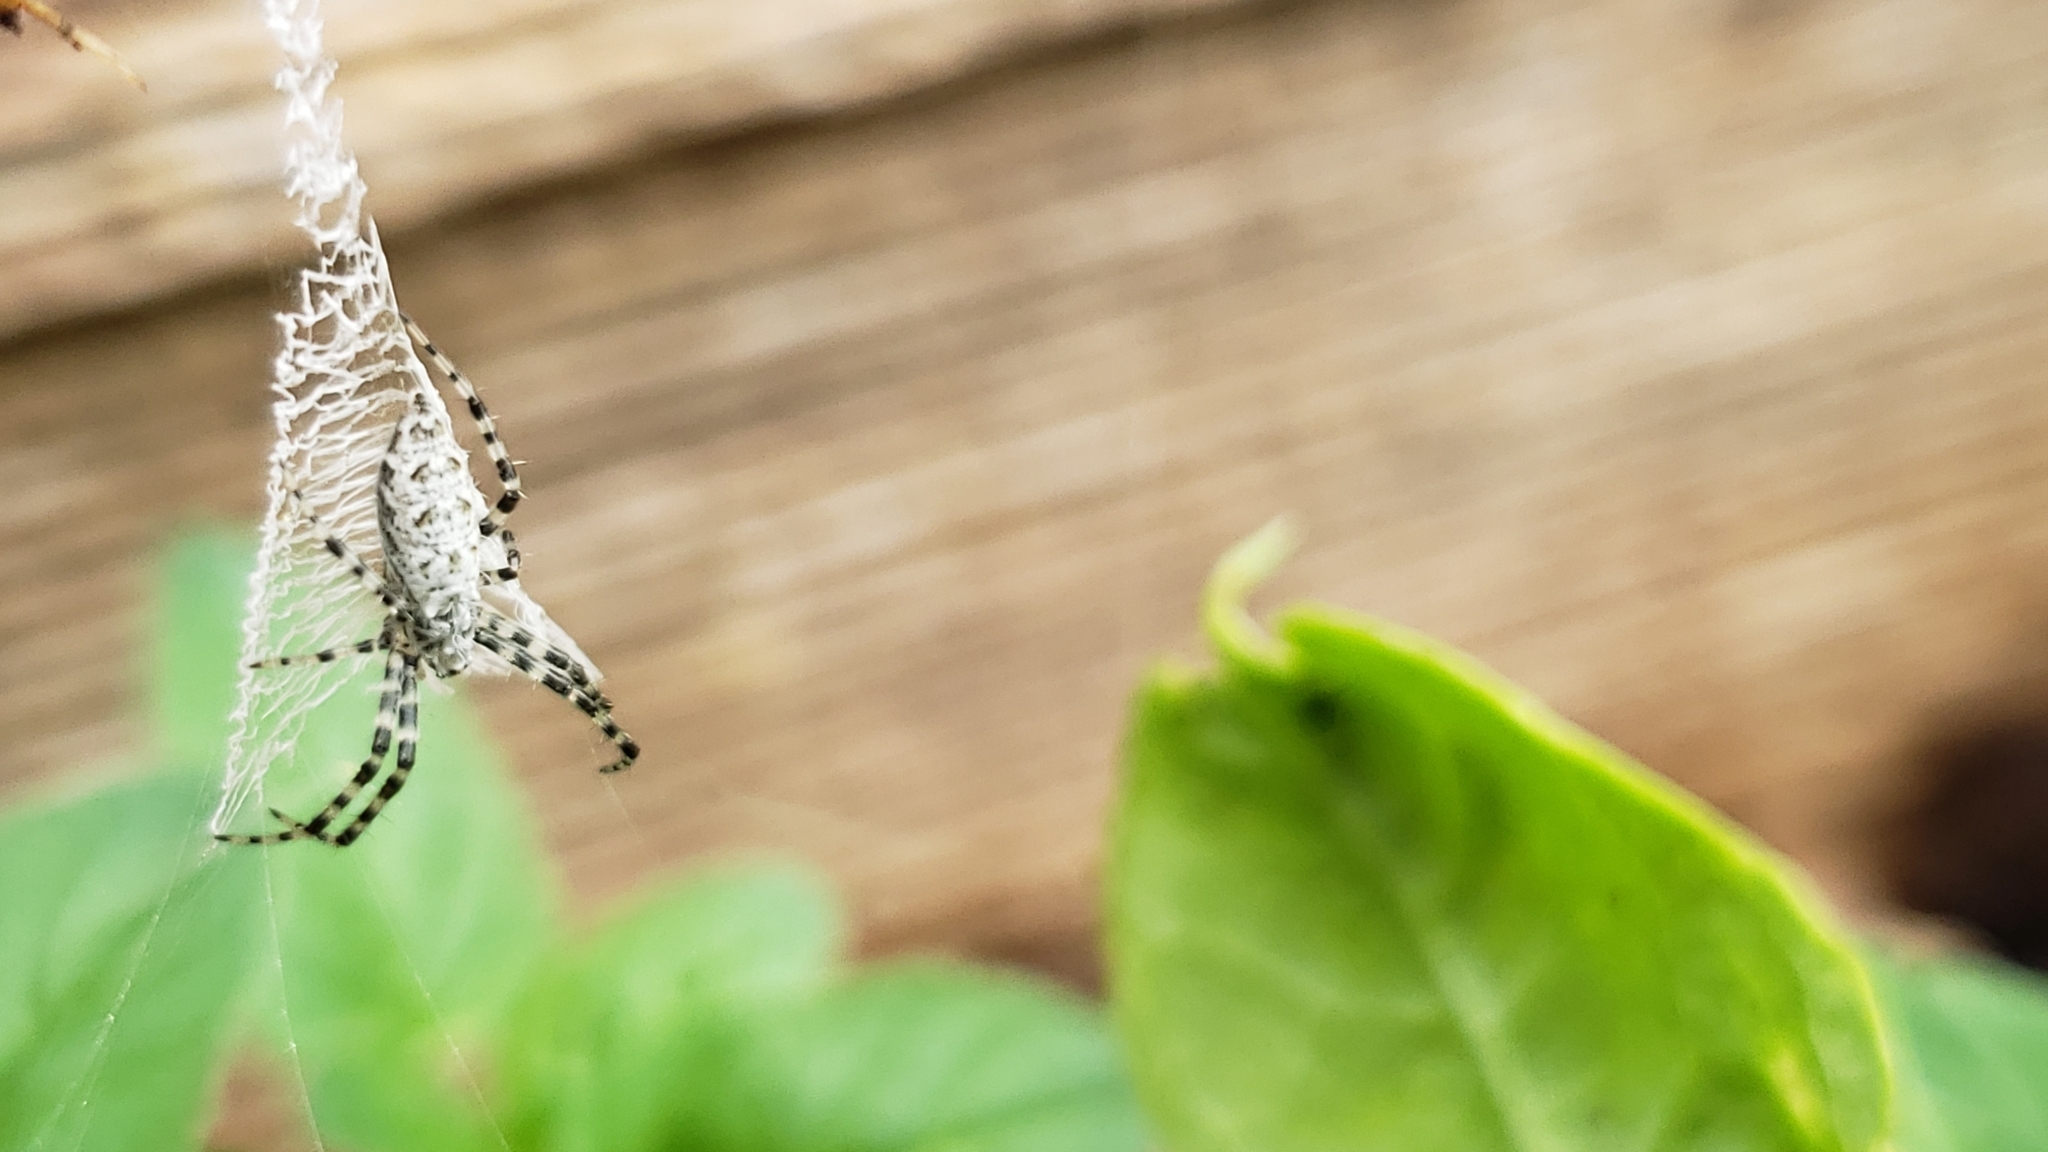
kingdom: Animalia
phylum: Arthropoda
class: Arachnida
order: Araneae
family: Araneidae
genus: Argiope
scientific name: Argiope aurantia
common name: Orb weavers
